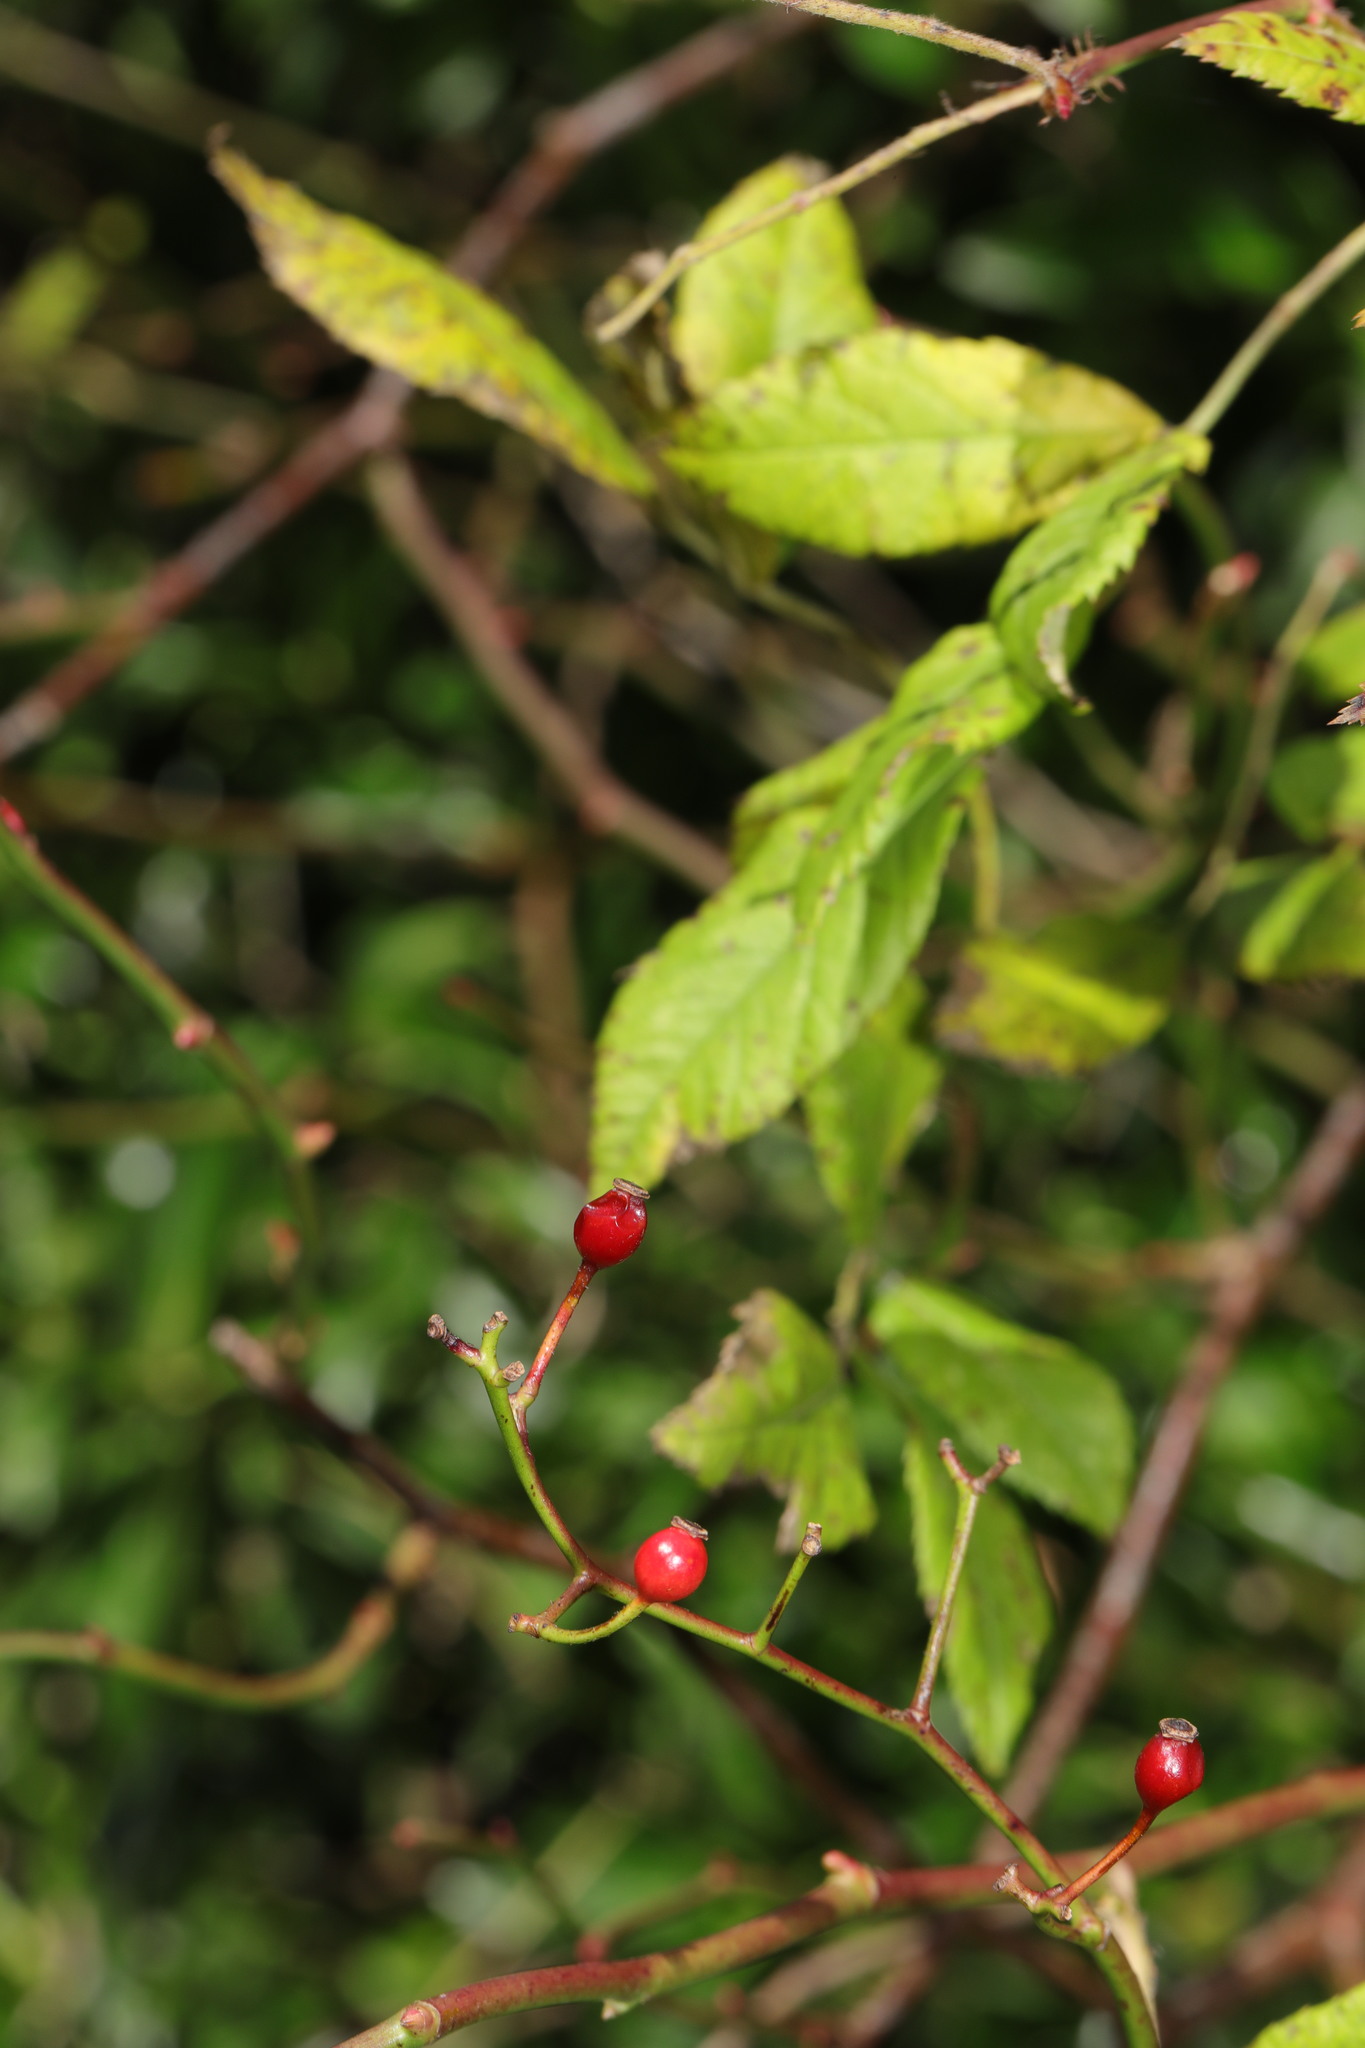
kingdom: Plantae
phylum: Tracheophyta
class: Magnoliopsida
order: Rosales
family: Rosaceae
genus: Rosa
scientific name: Rosa multiflora
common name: Multiflora rose
